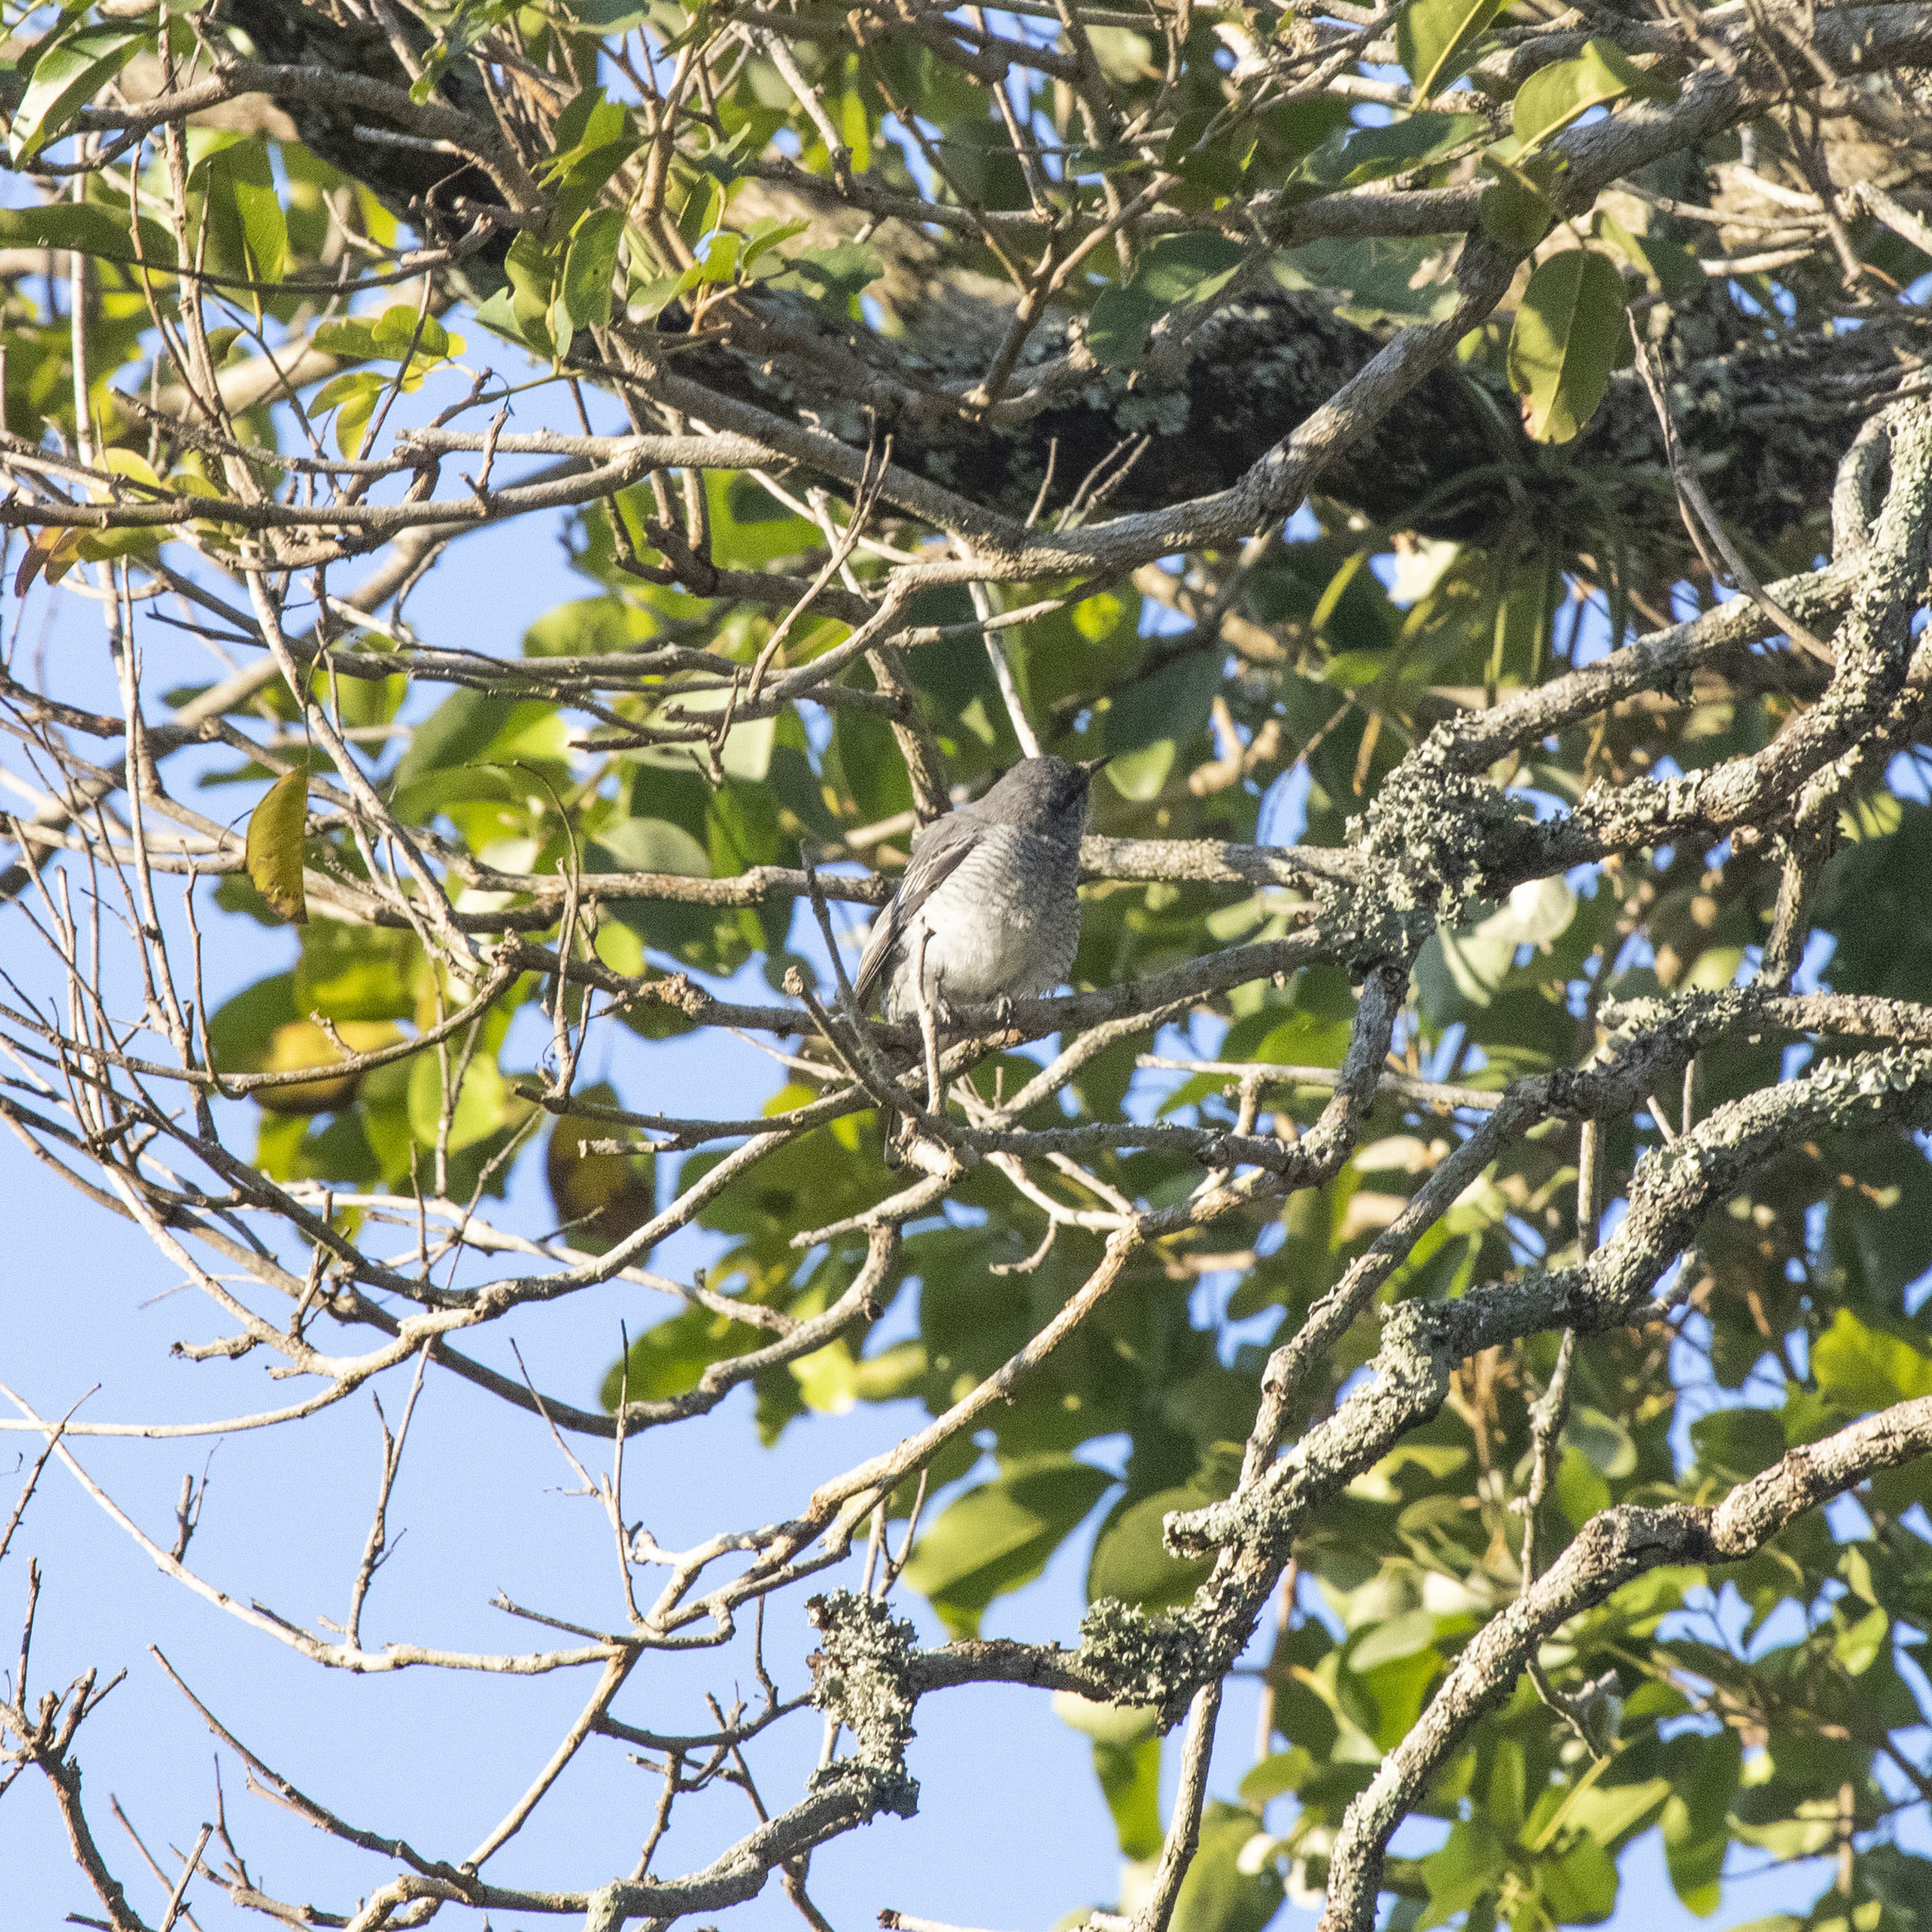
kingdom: Animalia
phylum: Chordata
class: Aves
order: Passeriformes
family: Campephagidae
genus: Coracina
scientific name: Coracina macei
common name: Large cuckooshrike
